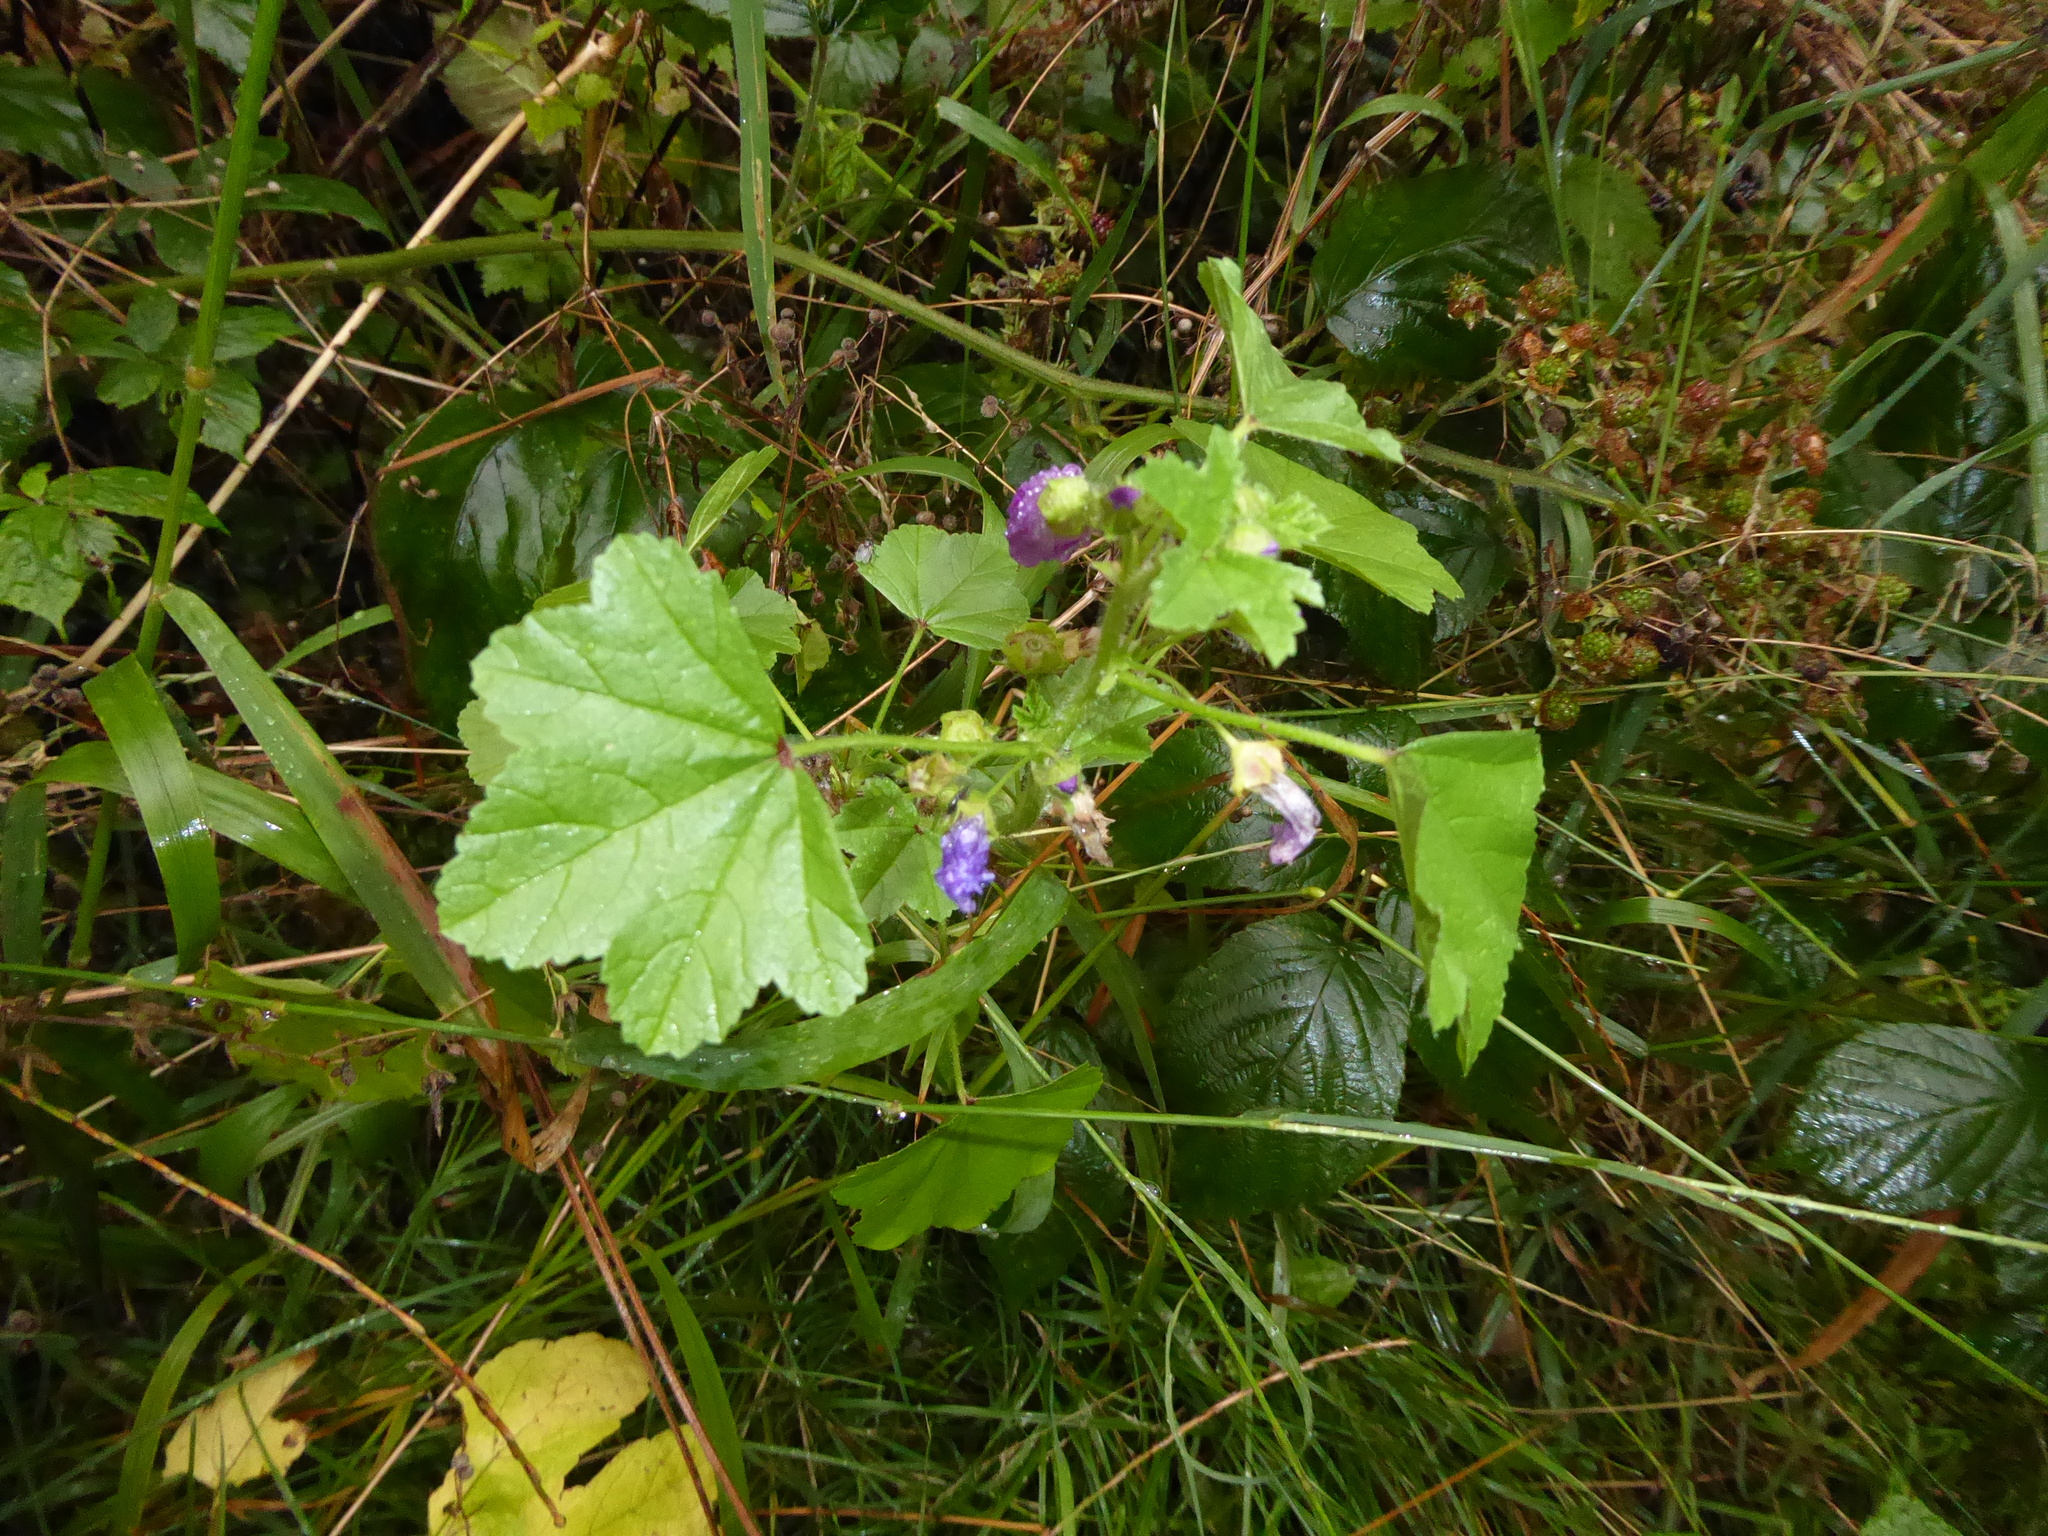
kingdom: Plantae
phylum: Tracheophyta
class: Magnoliopsida
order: Malvales
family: Malvaceae
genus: Malva
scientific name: Malva sylvestris
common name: Common mallow
